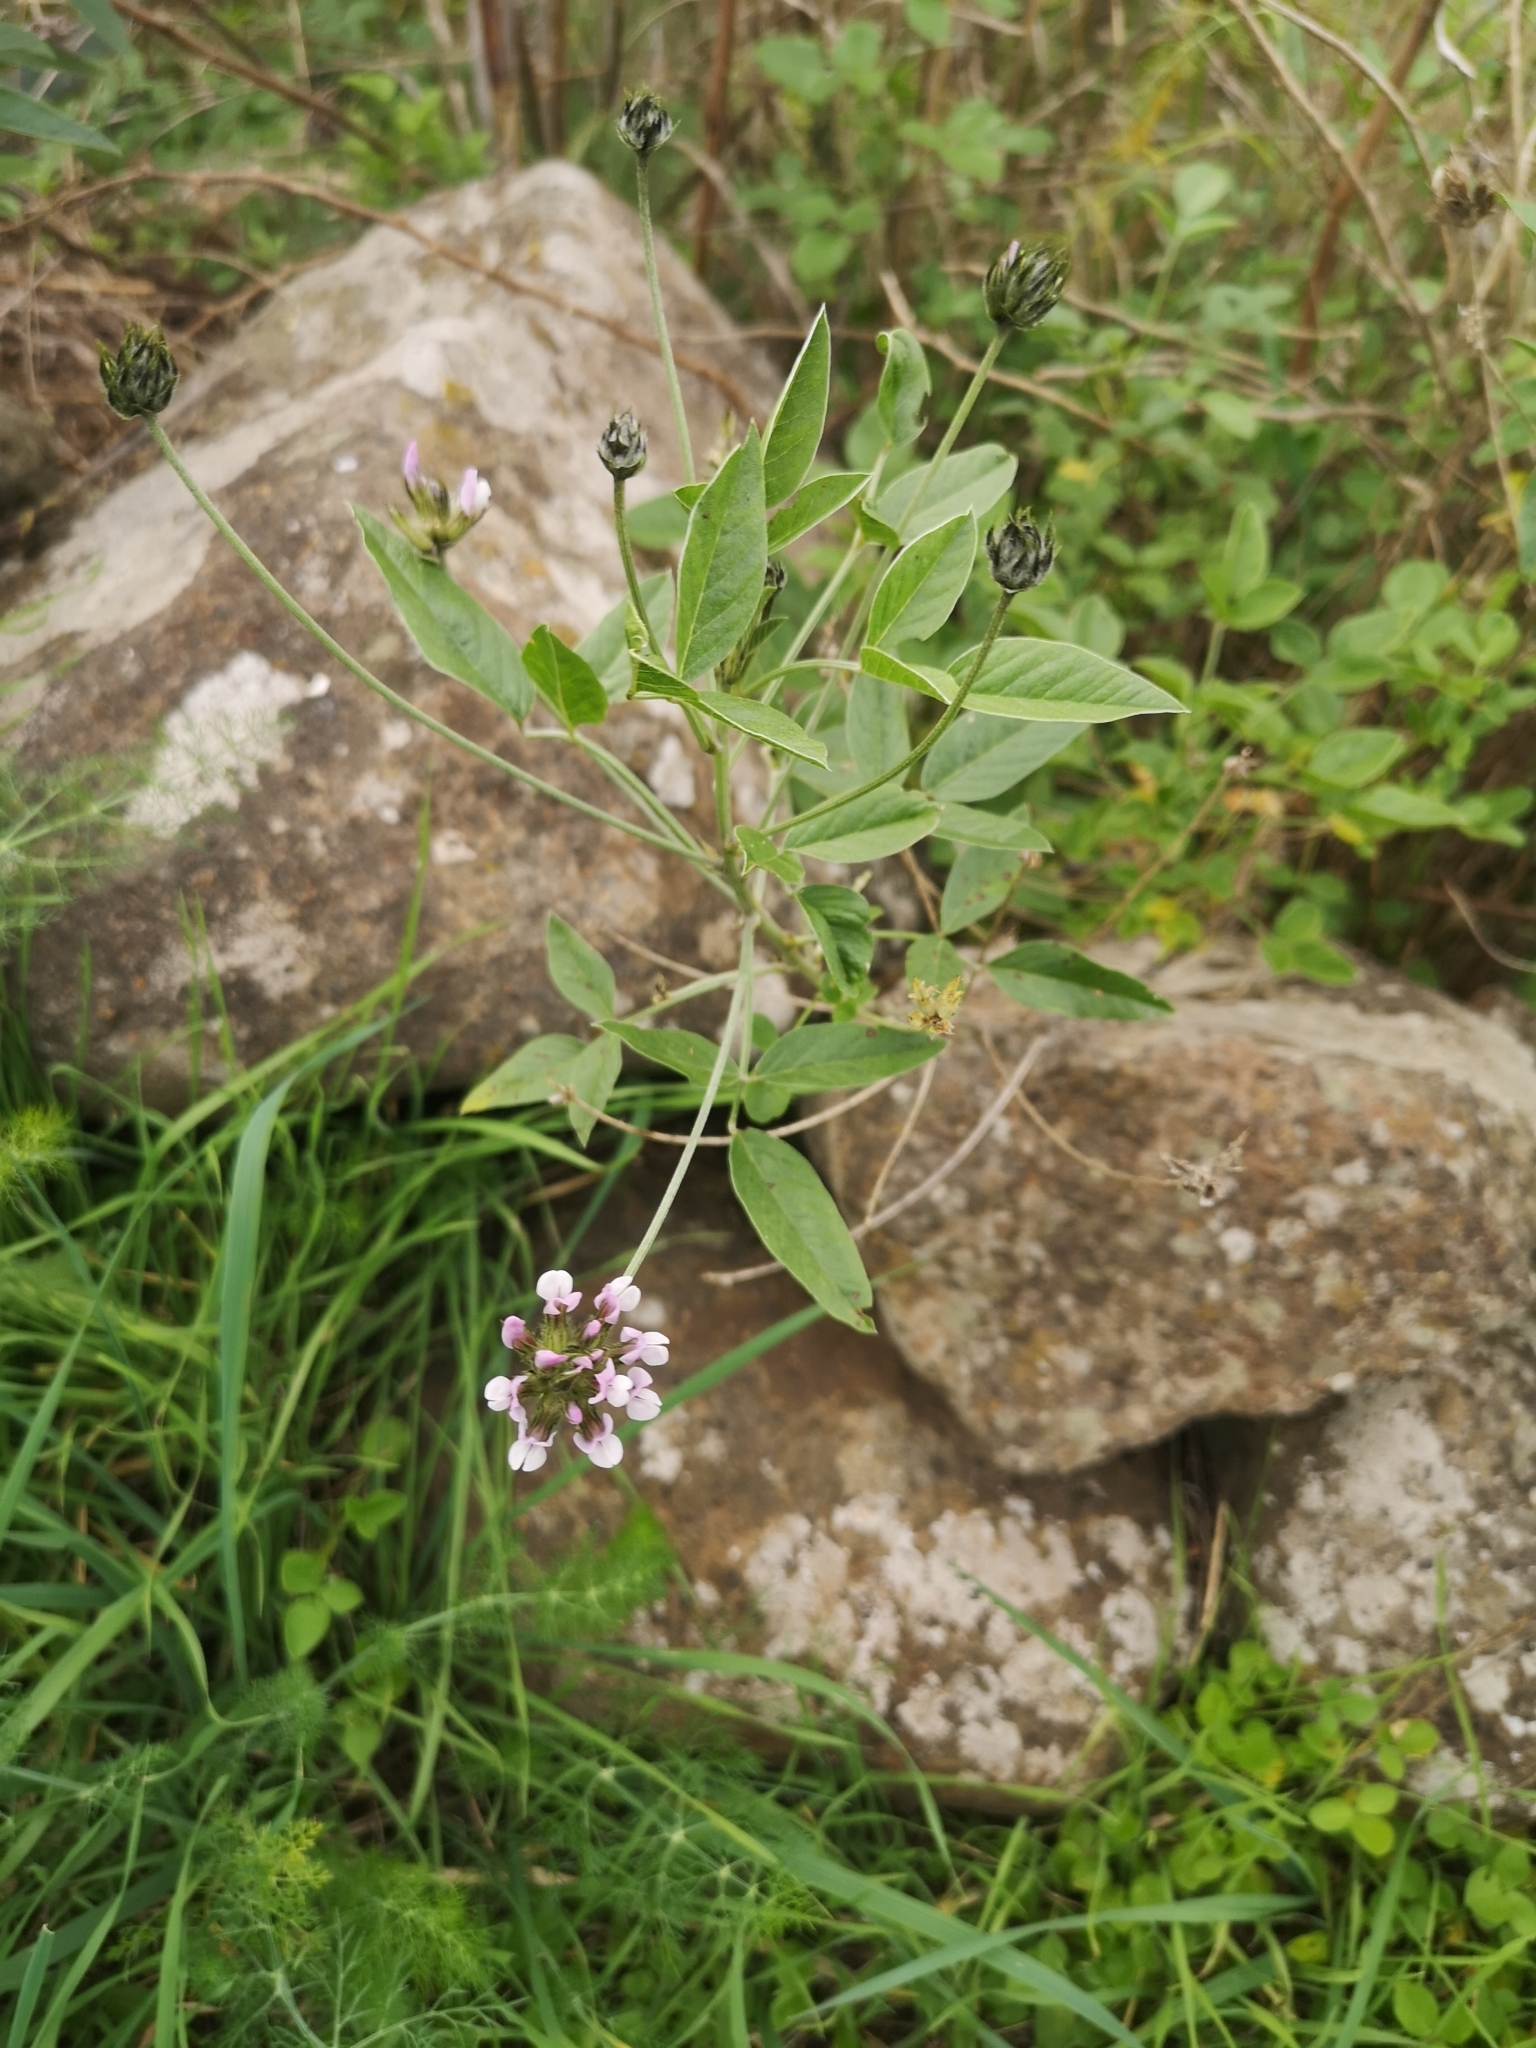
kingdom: Plantae
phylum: Tracheophyta
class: Magnoliopsida
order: Fabales
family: Fabaceae
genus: Bituminaria
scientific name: Bituminaria bituminosa
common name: Arabian pea
